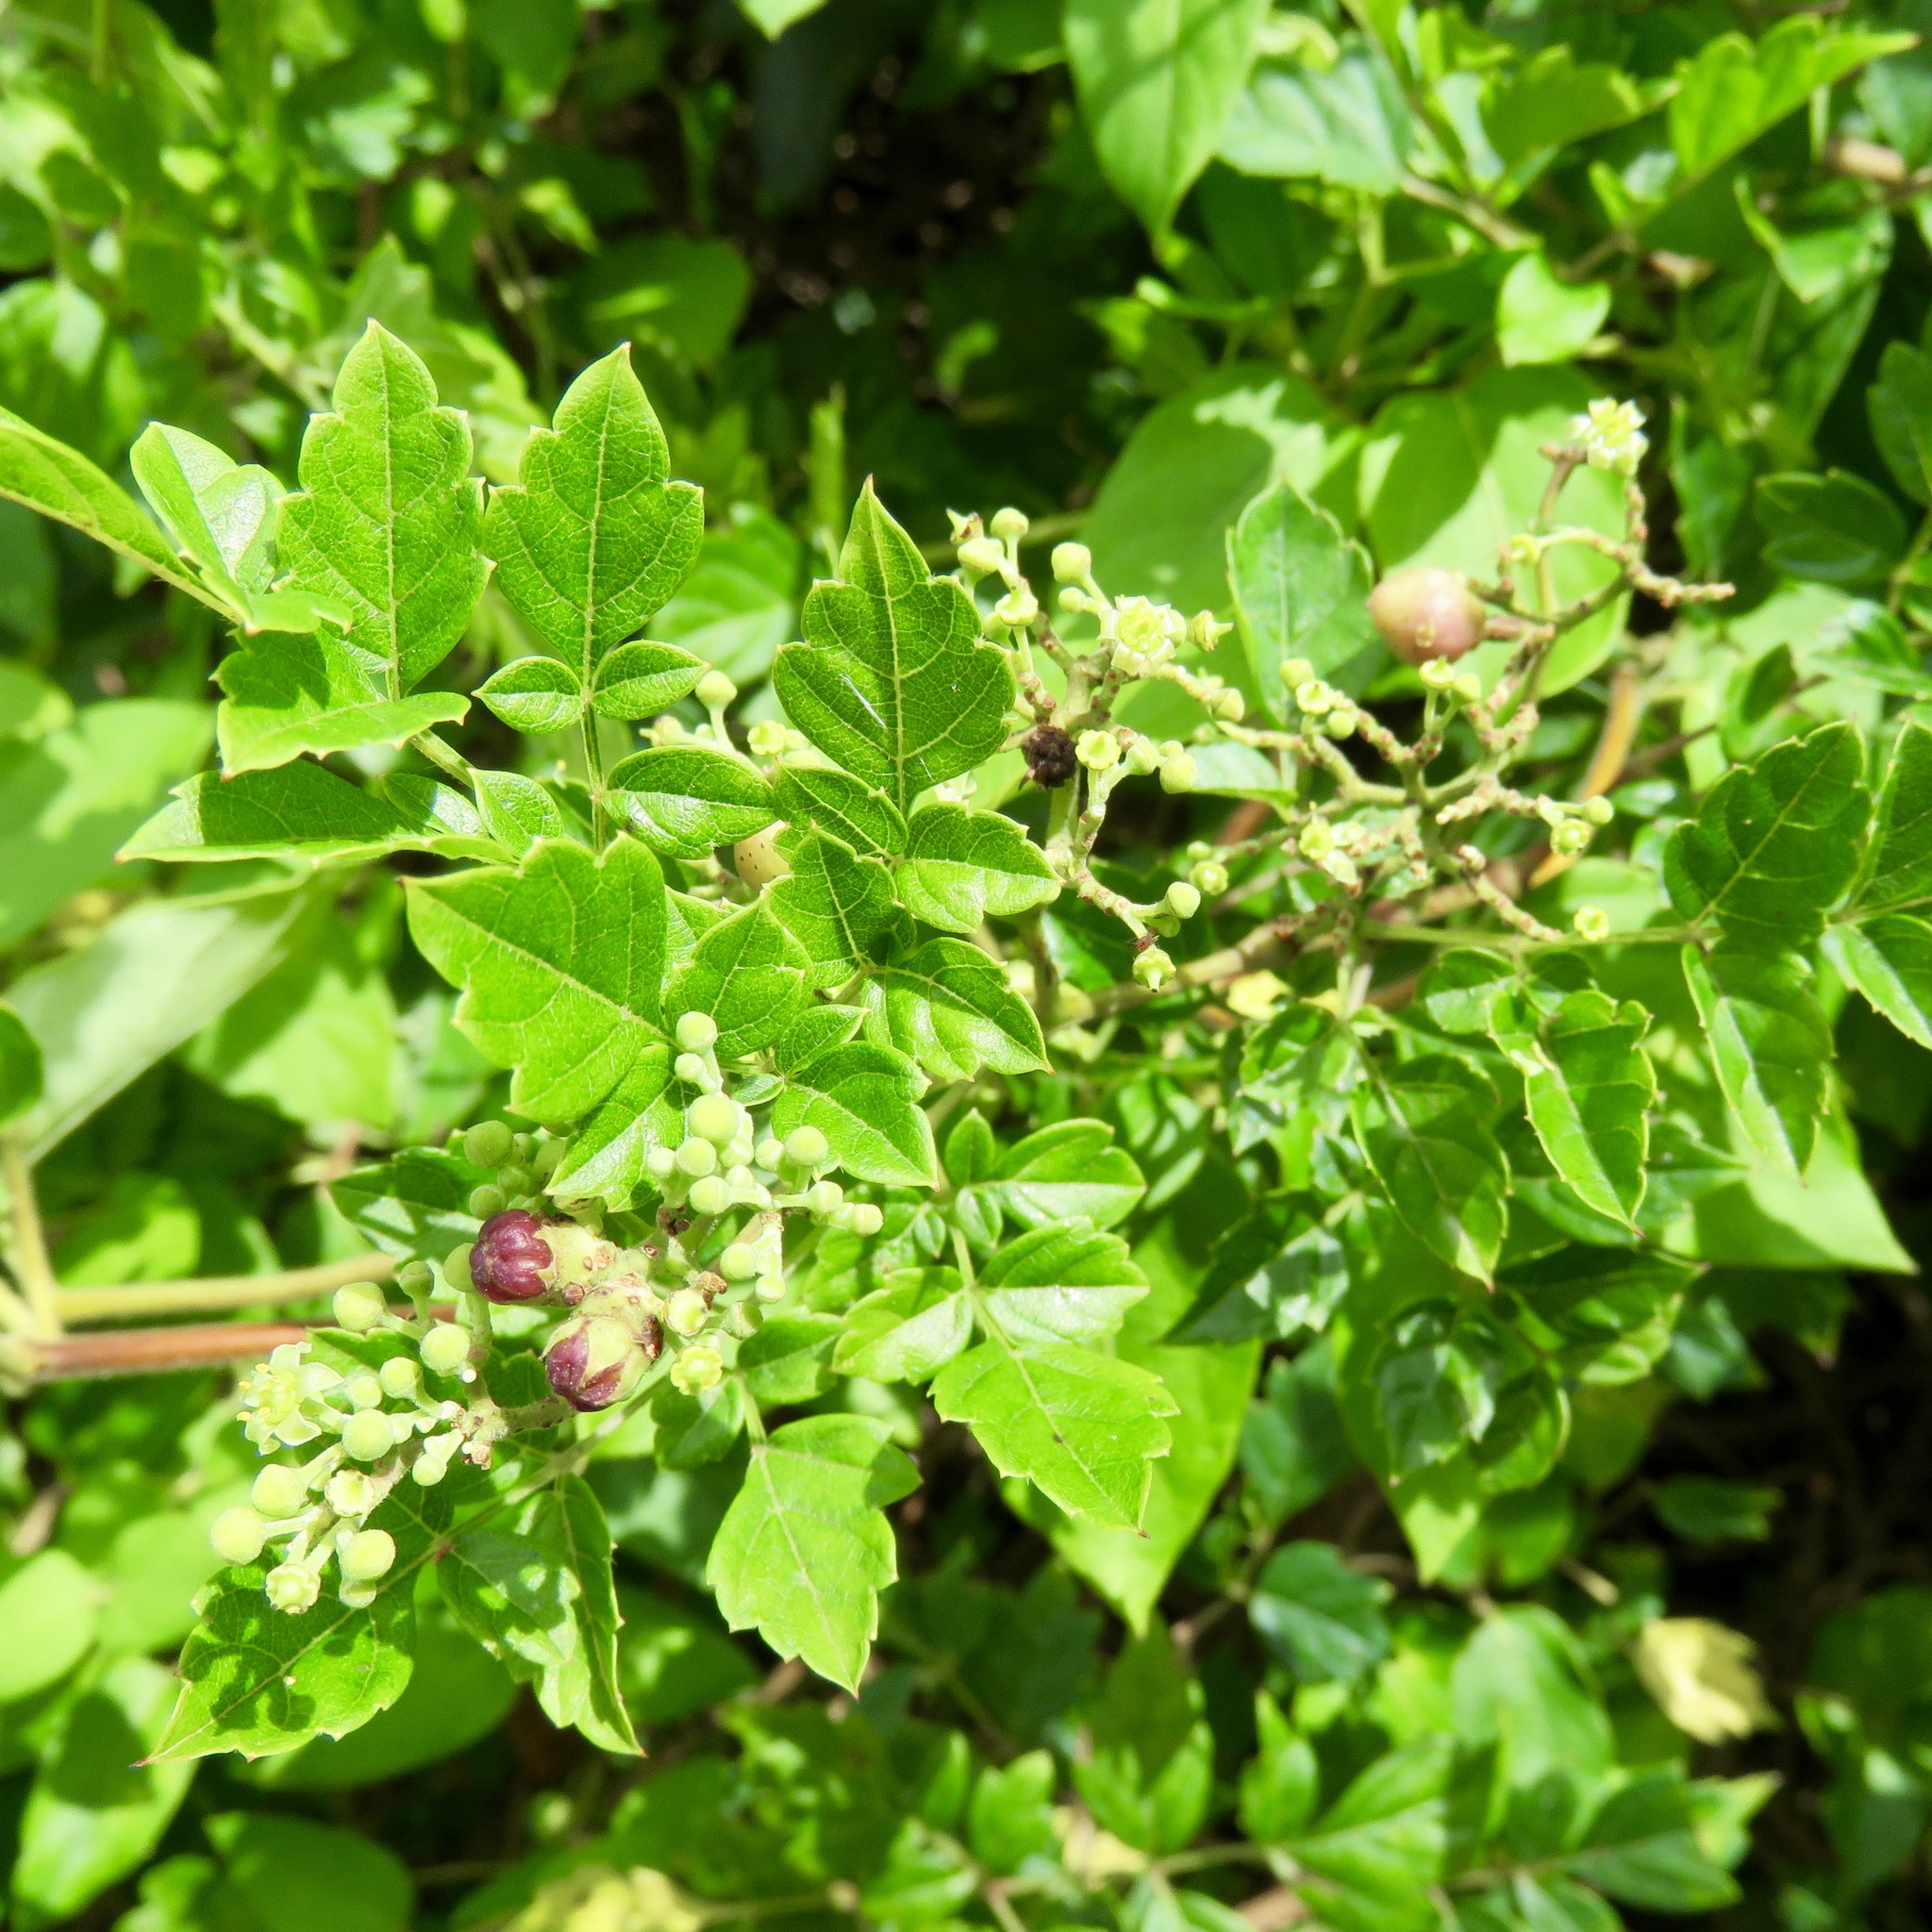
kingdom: Plantae
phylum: Tracheophyta
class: Magnoliopsida
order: Vitales
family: Vitaceae
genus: Nekemias
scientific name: Nekemias arborea
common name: Peppervine
